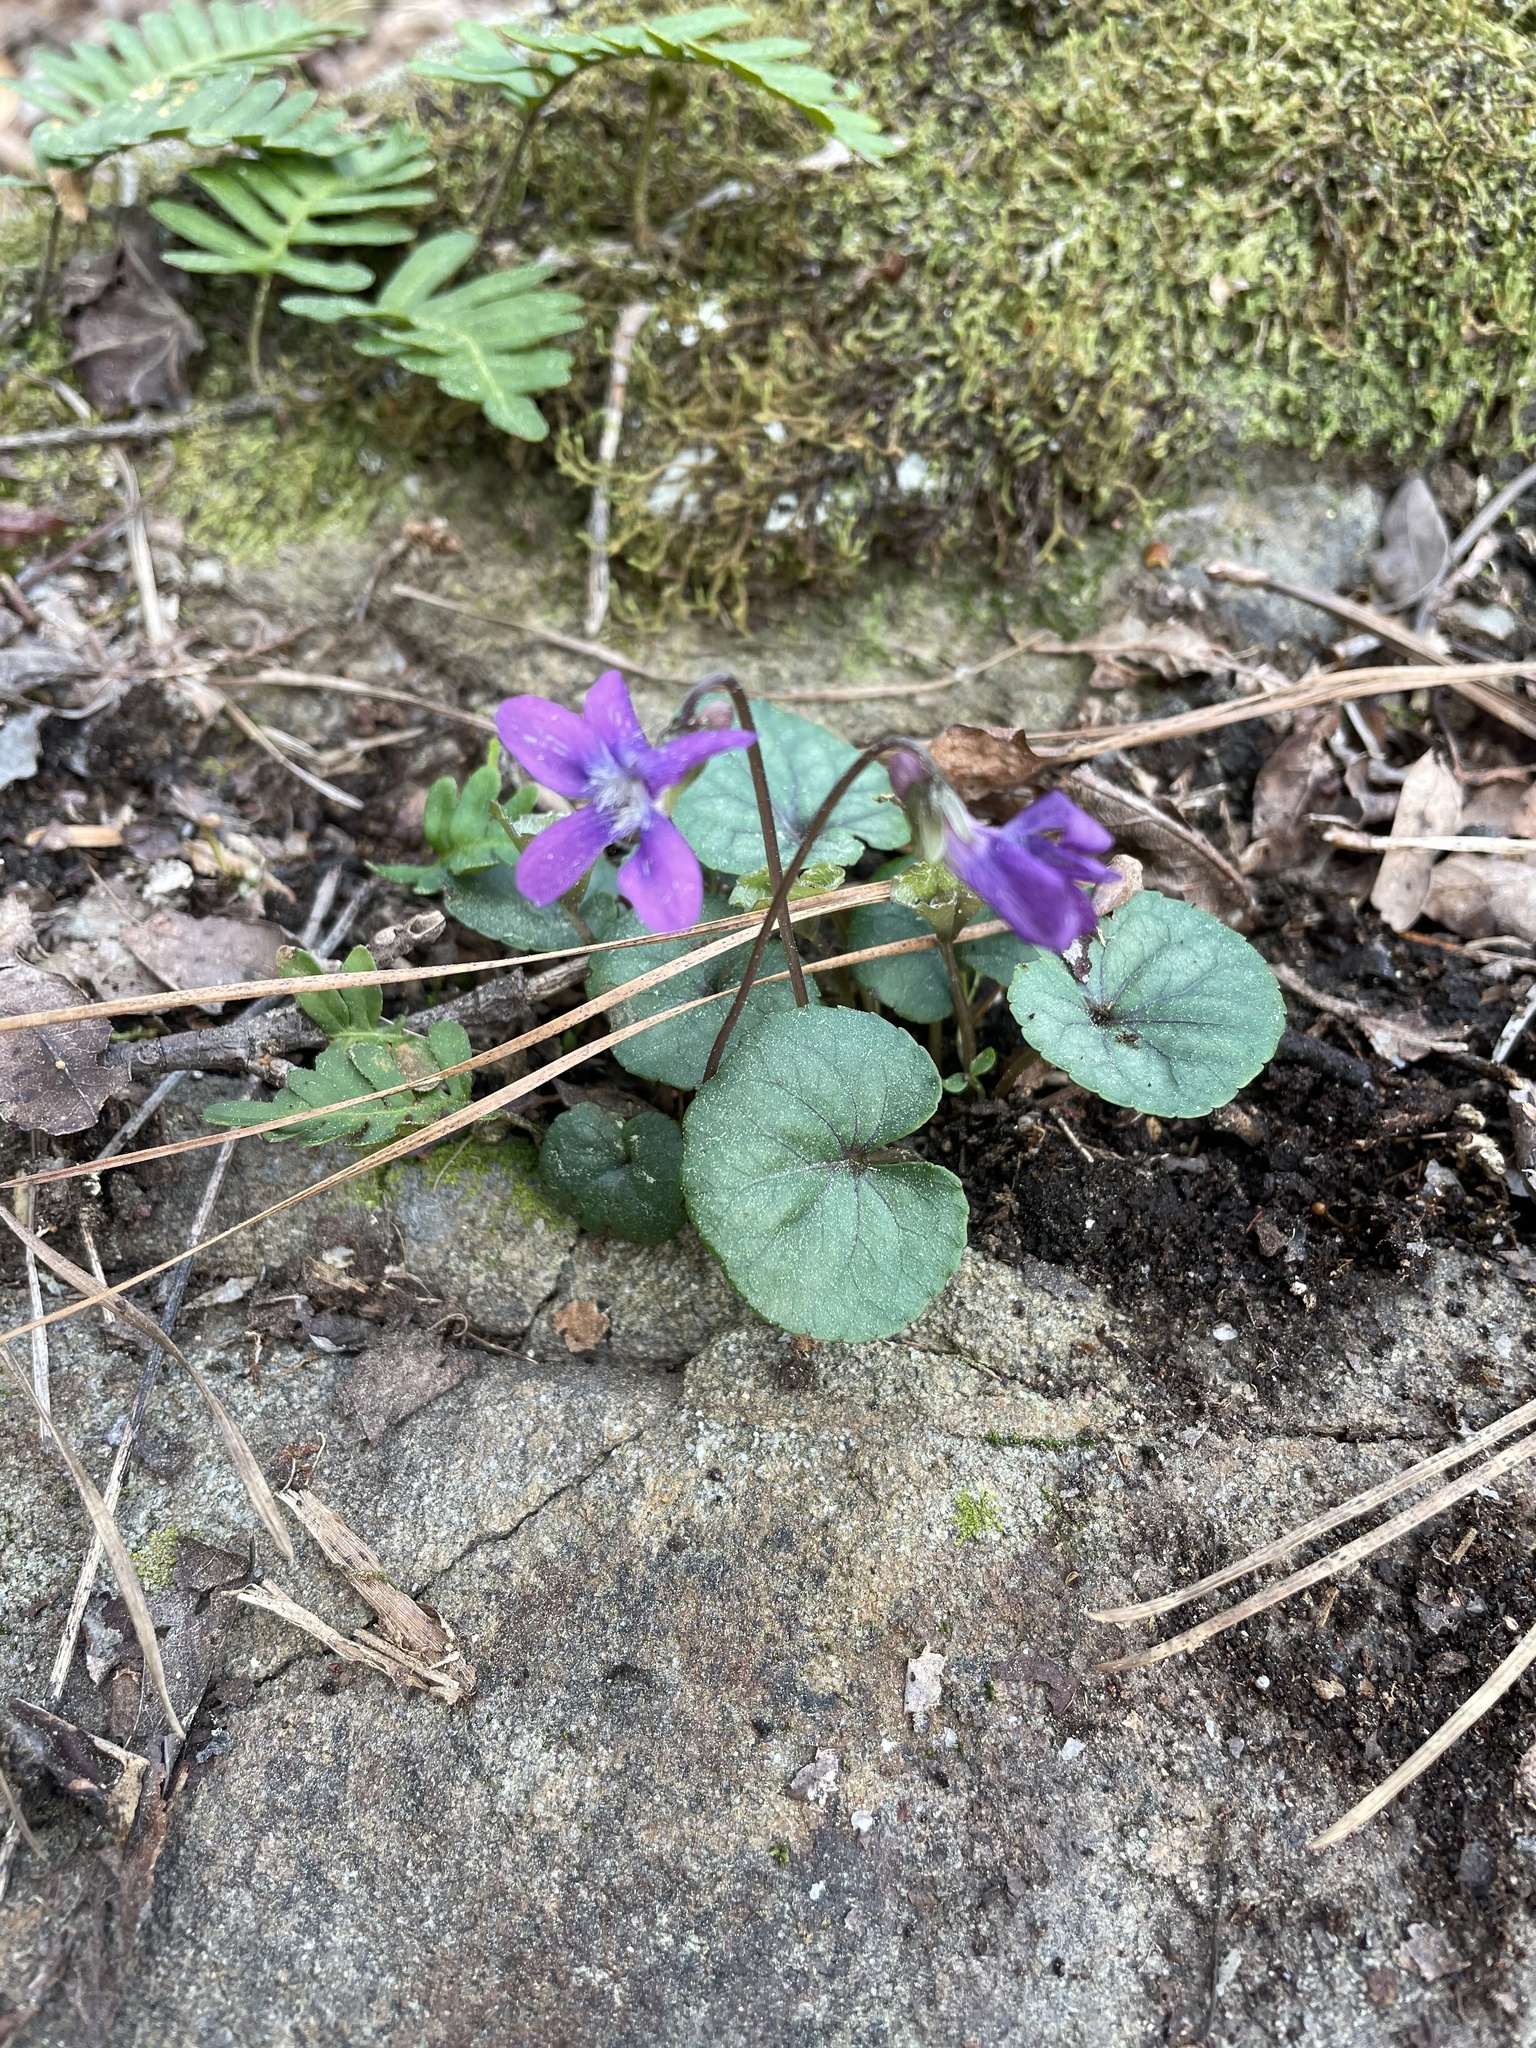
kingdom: Plantae
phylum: Tracheophyta
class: Magnoliopsida
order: Malpighiales
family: Violaceae
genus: Viola
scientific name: Viola walteri
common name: Prostrate southern violet
